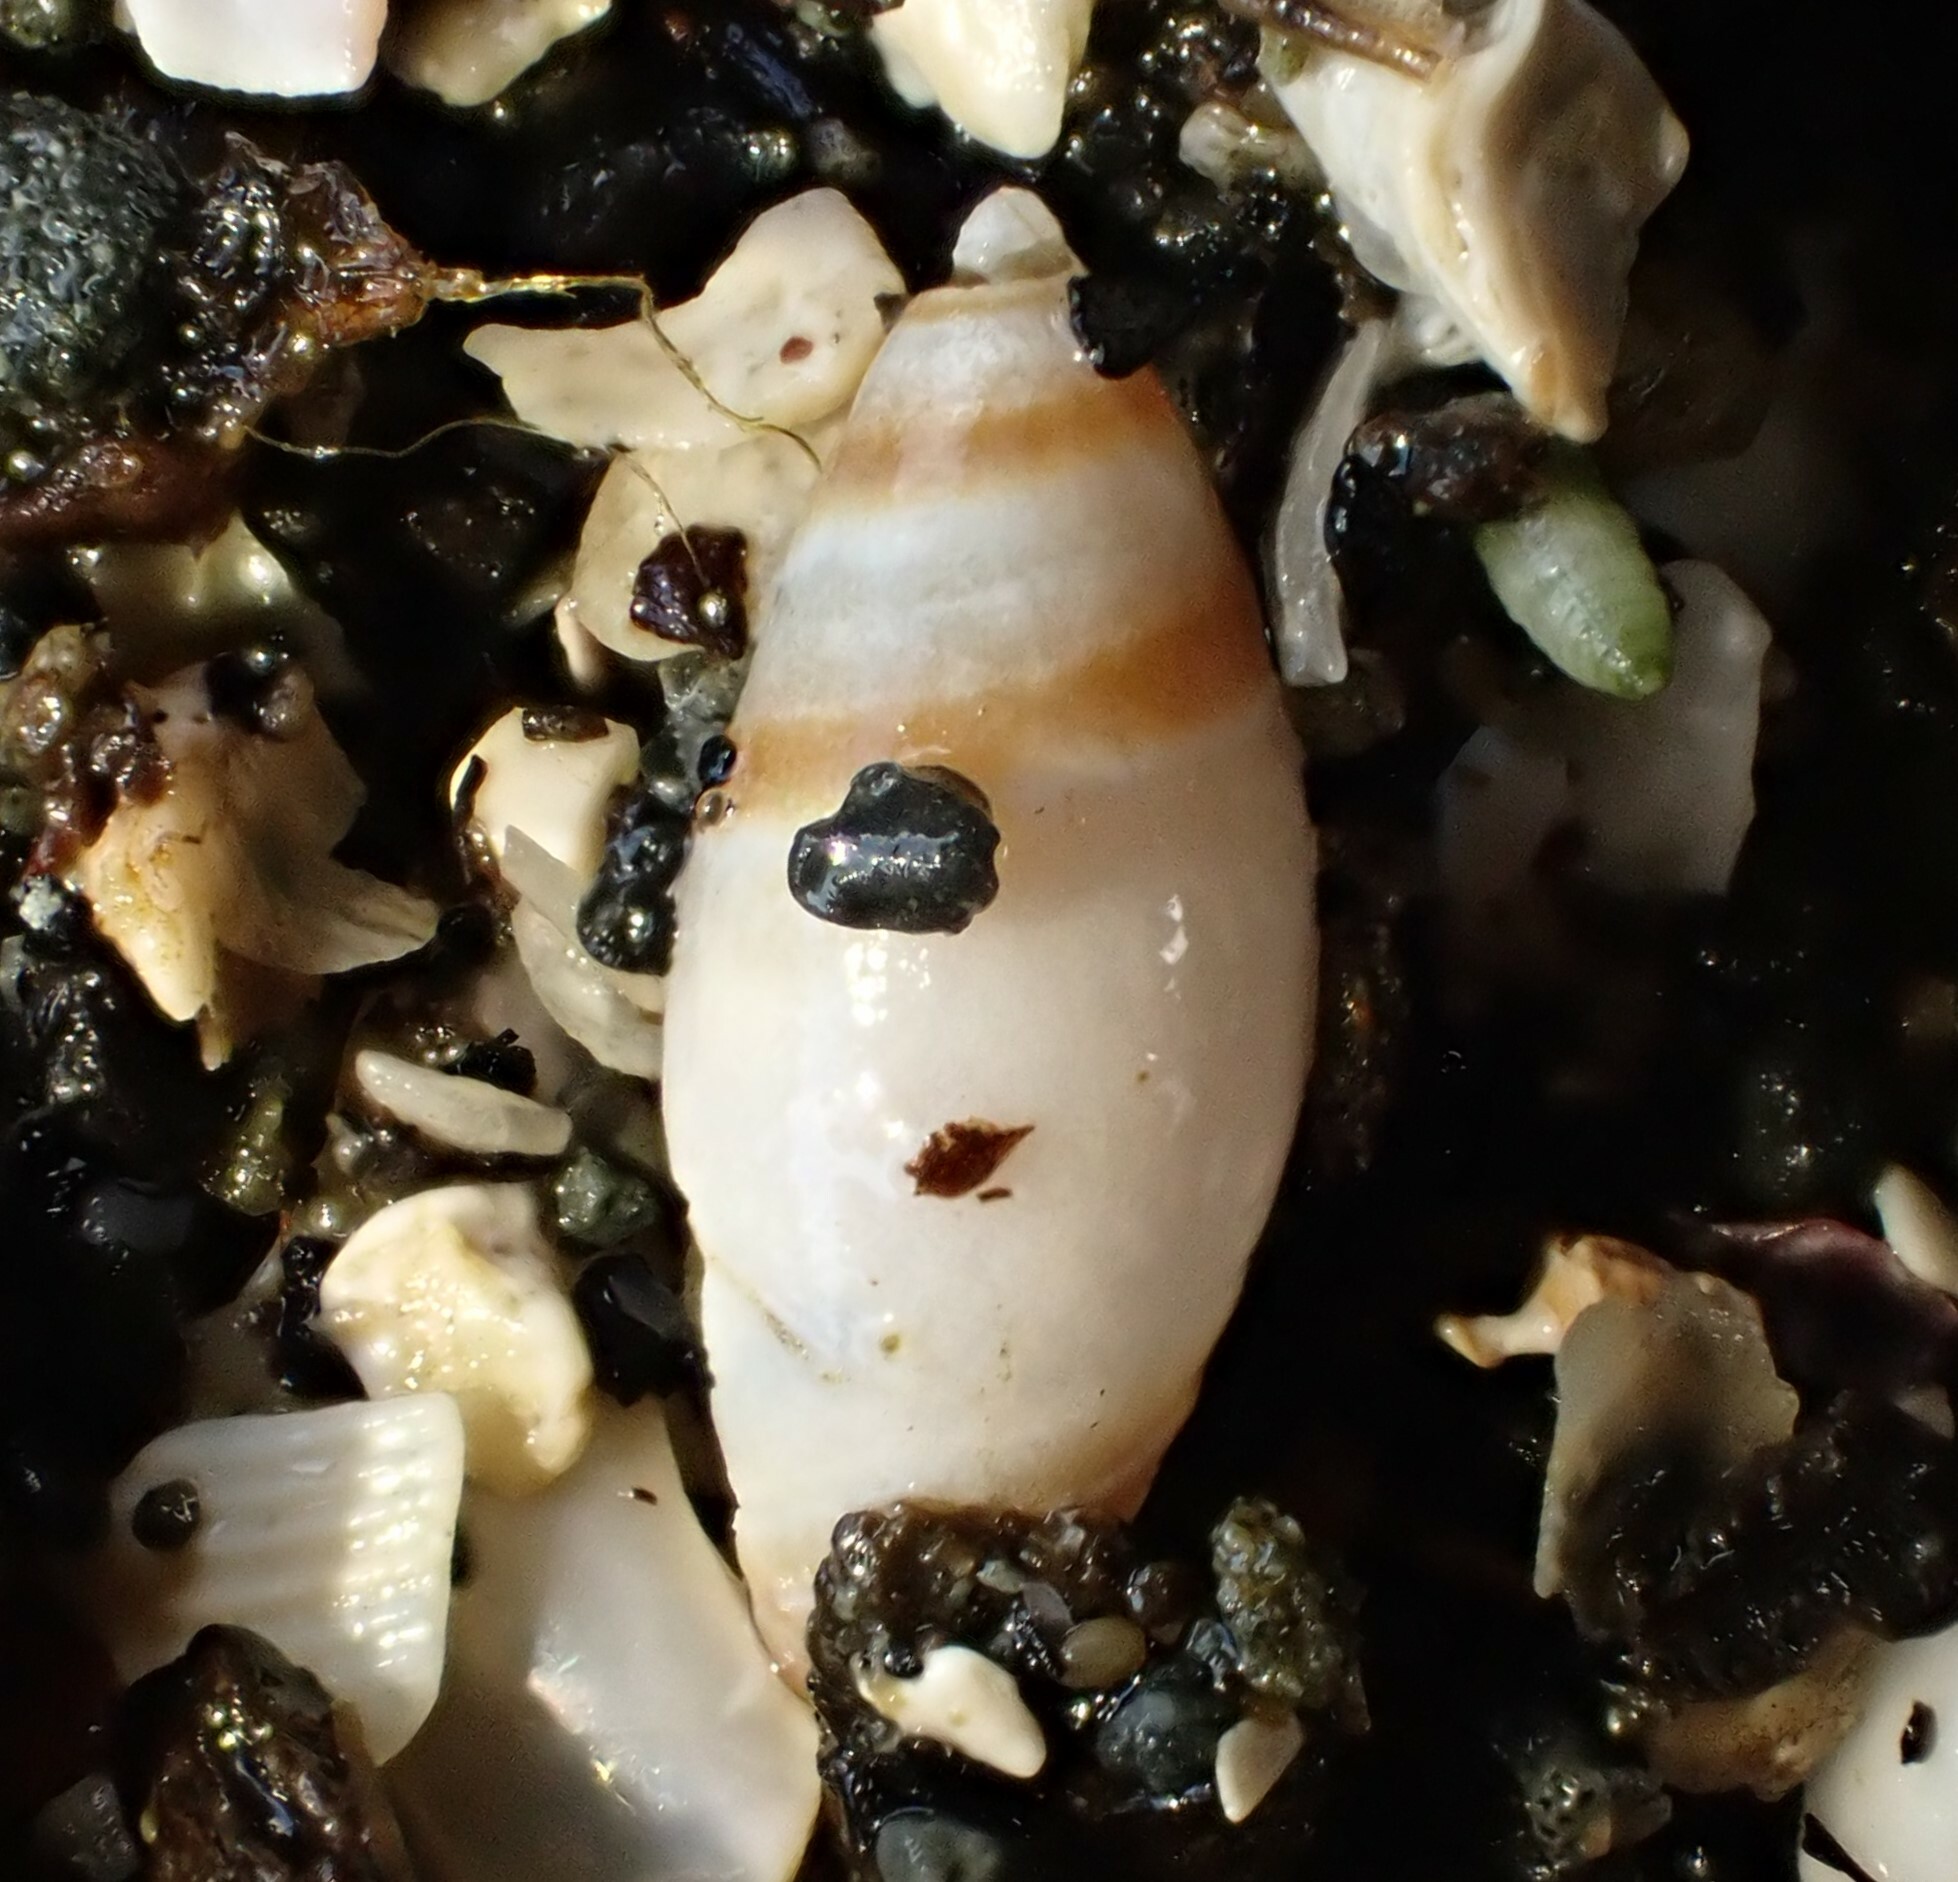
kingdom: Animalia
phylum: Mollusca
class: Gastropoda
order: Neogastropoda
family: Ancillariidae
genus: Amalda
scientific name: Amalda novaezelandiae
